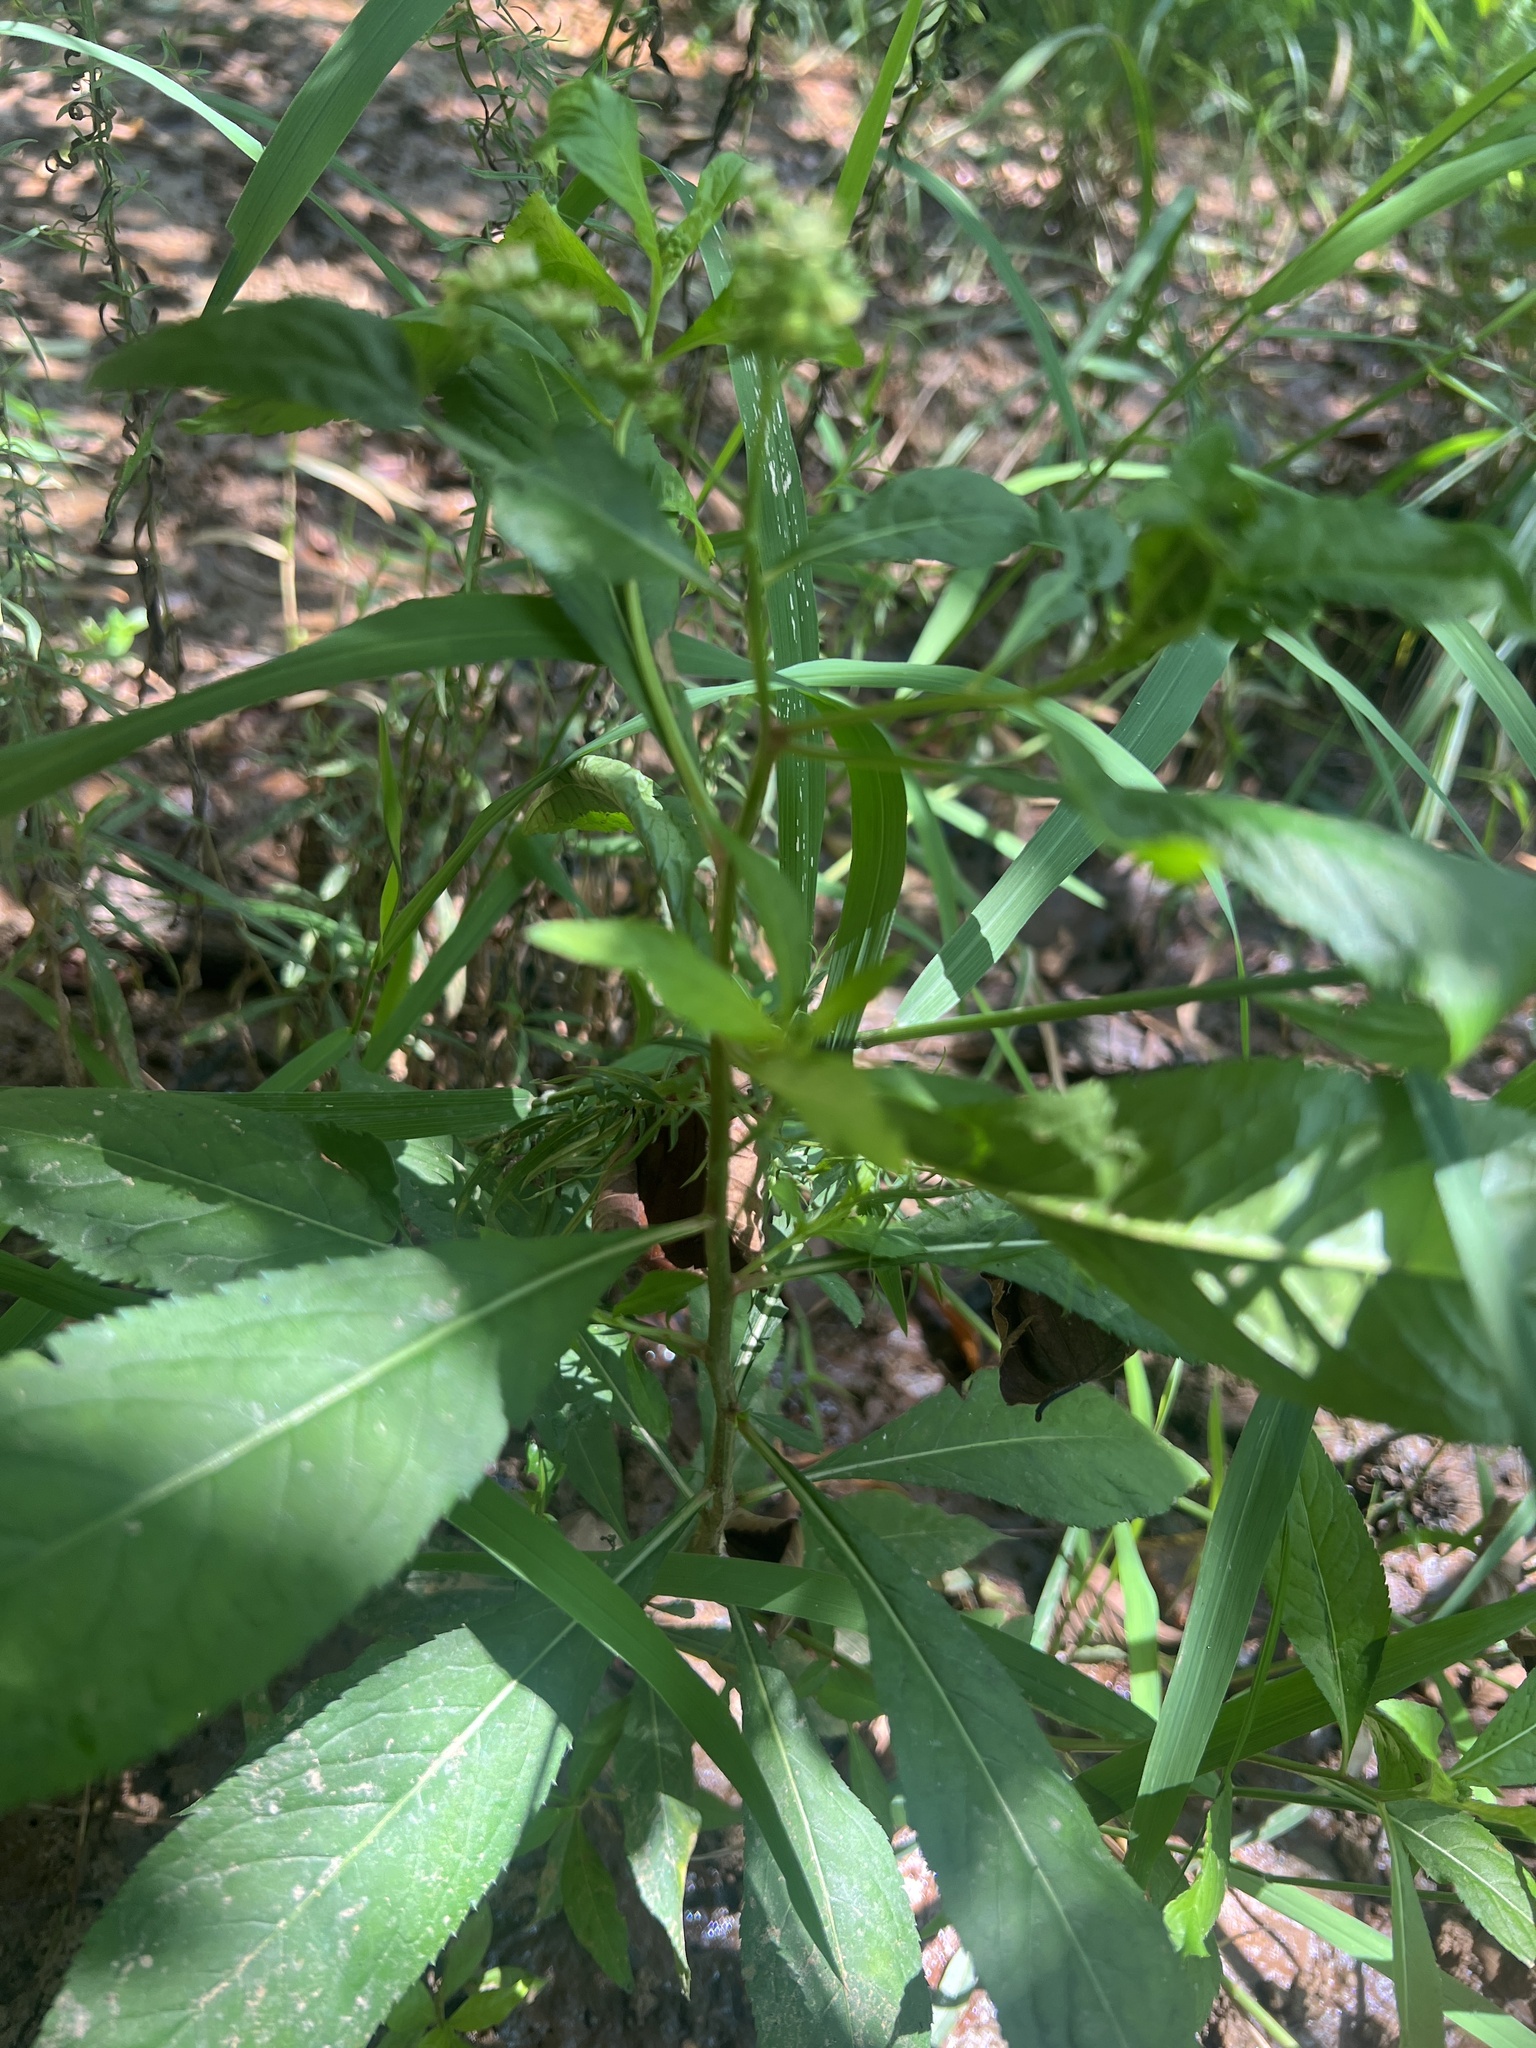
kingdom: Plantae
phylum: Tracheophyta
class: Magnoliopsida
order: Saxifragales
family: Penthoraceae
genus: Penthorum
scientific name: Penthorum sedoides
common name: Ditch stonecrop
